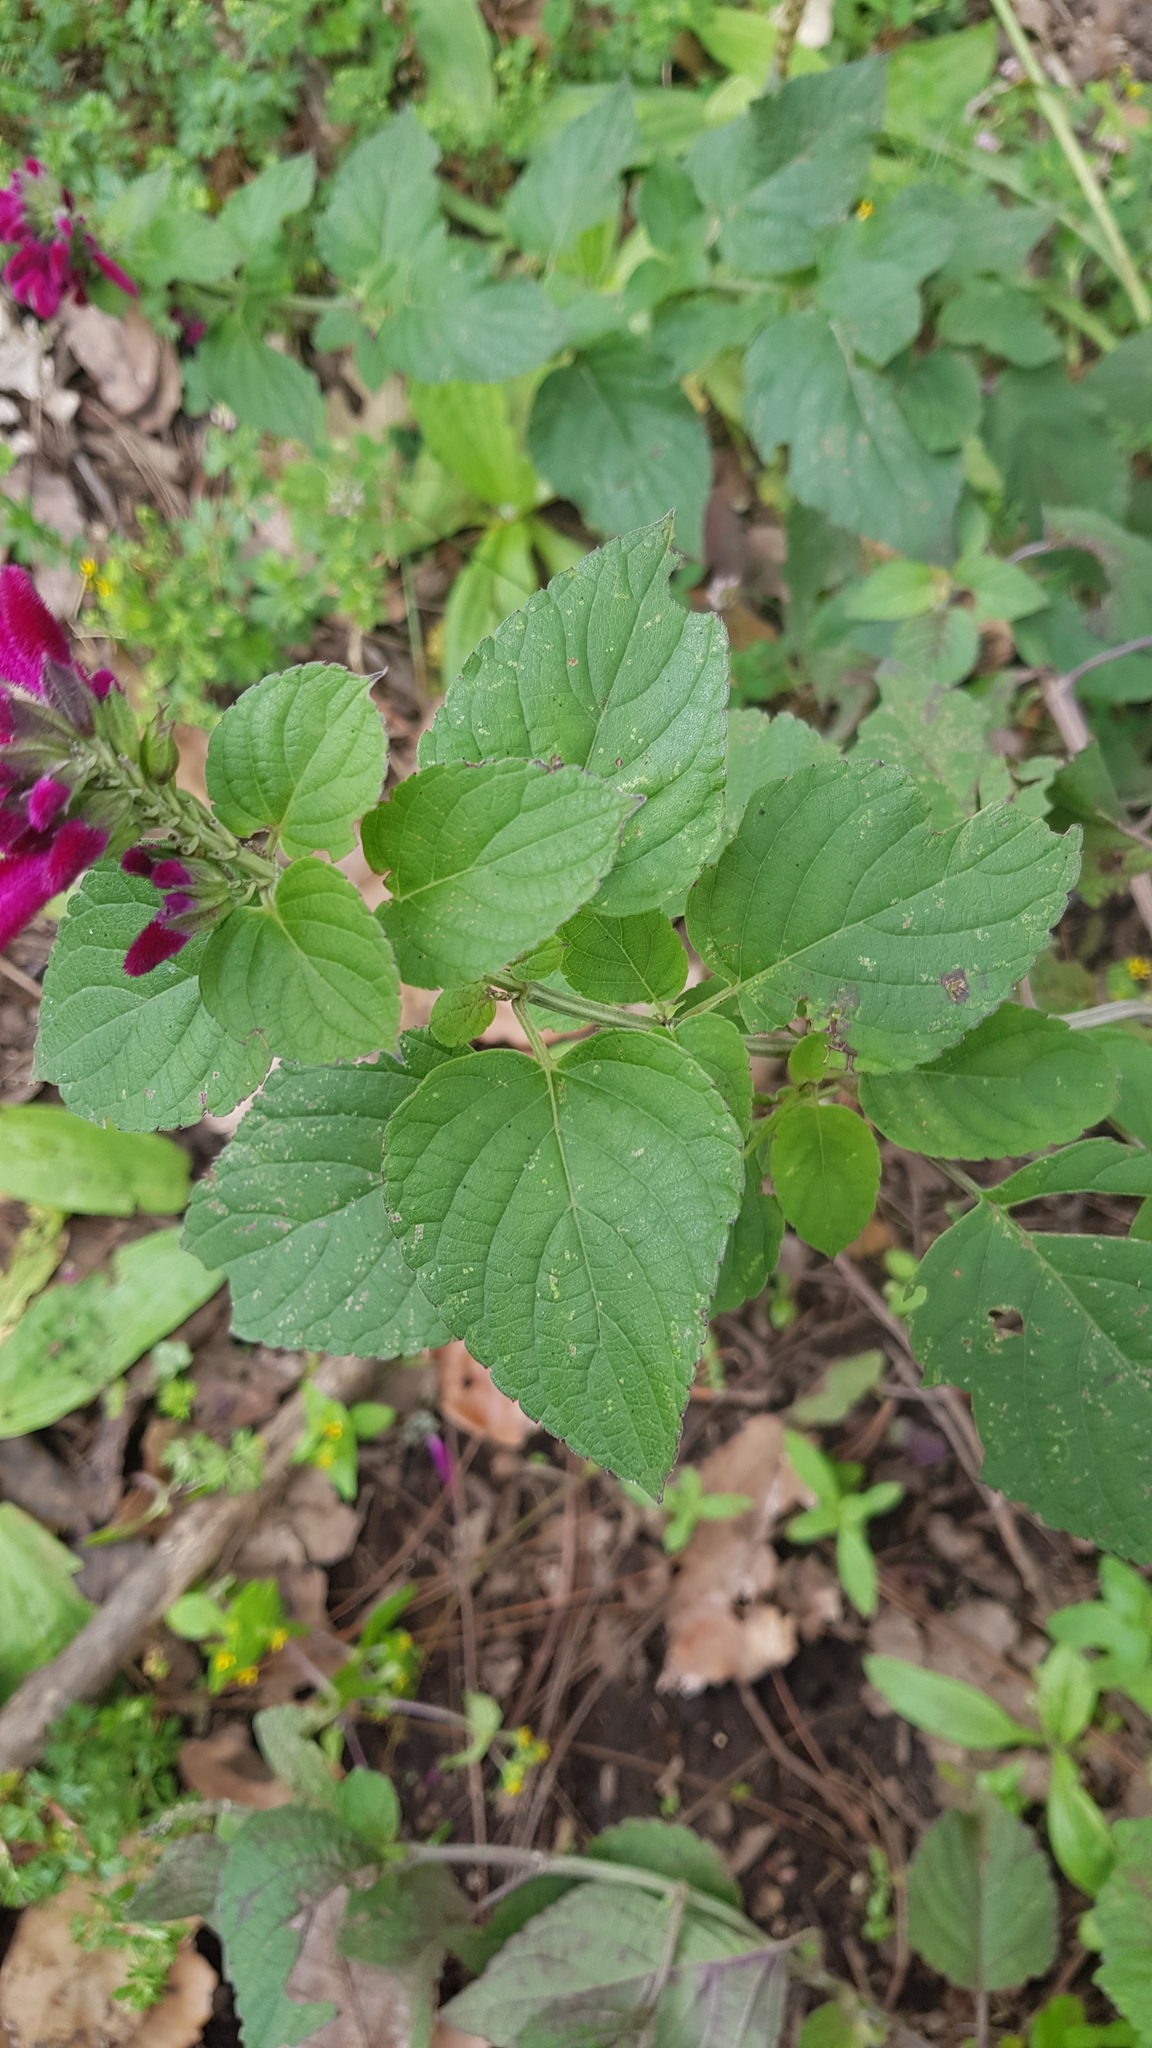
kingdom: Plantae
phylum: Tracheophyta
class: Magnoliopsida
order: Lamiales
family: Lamiaceae
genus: Salvia
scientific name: Salvia littae
